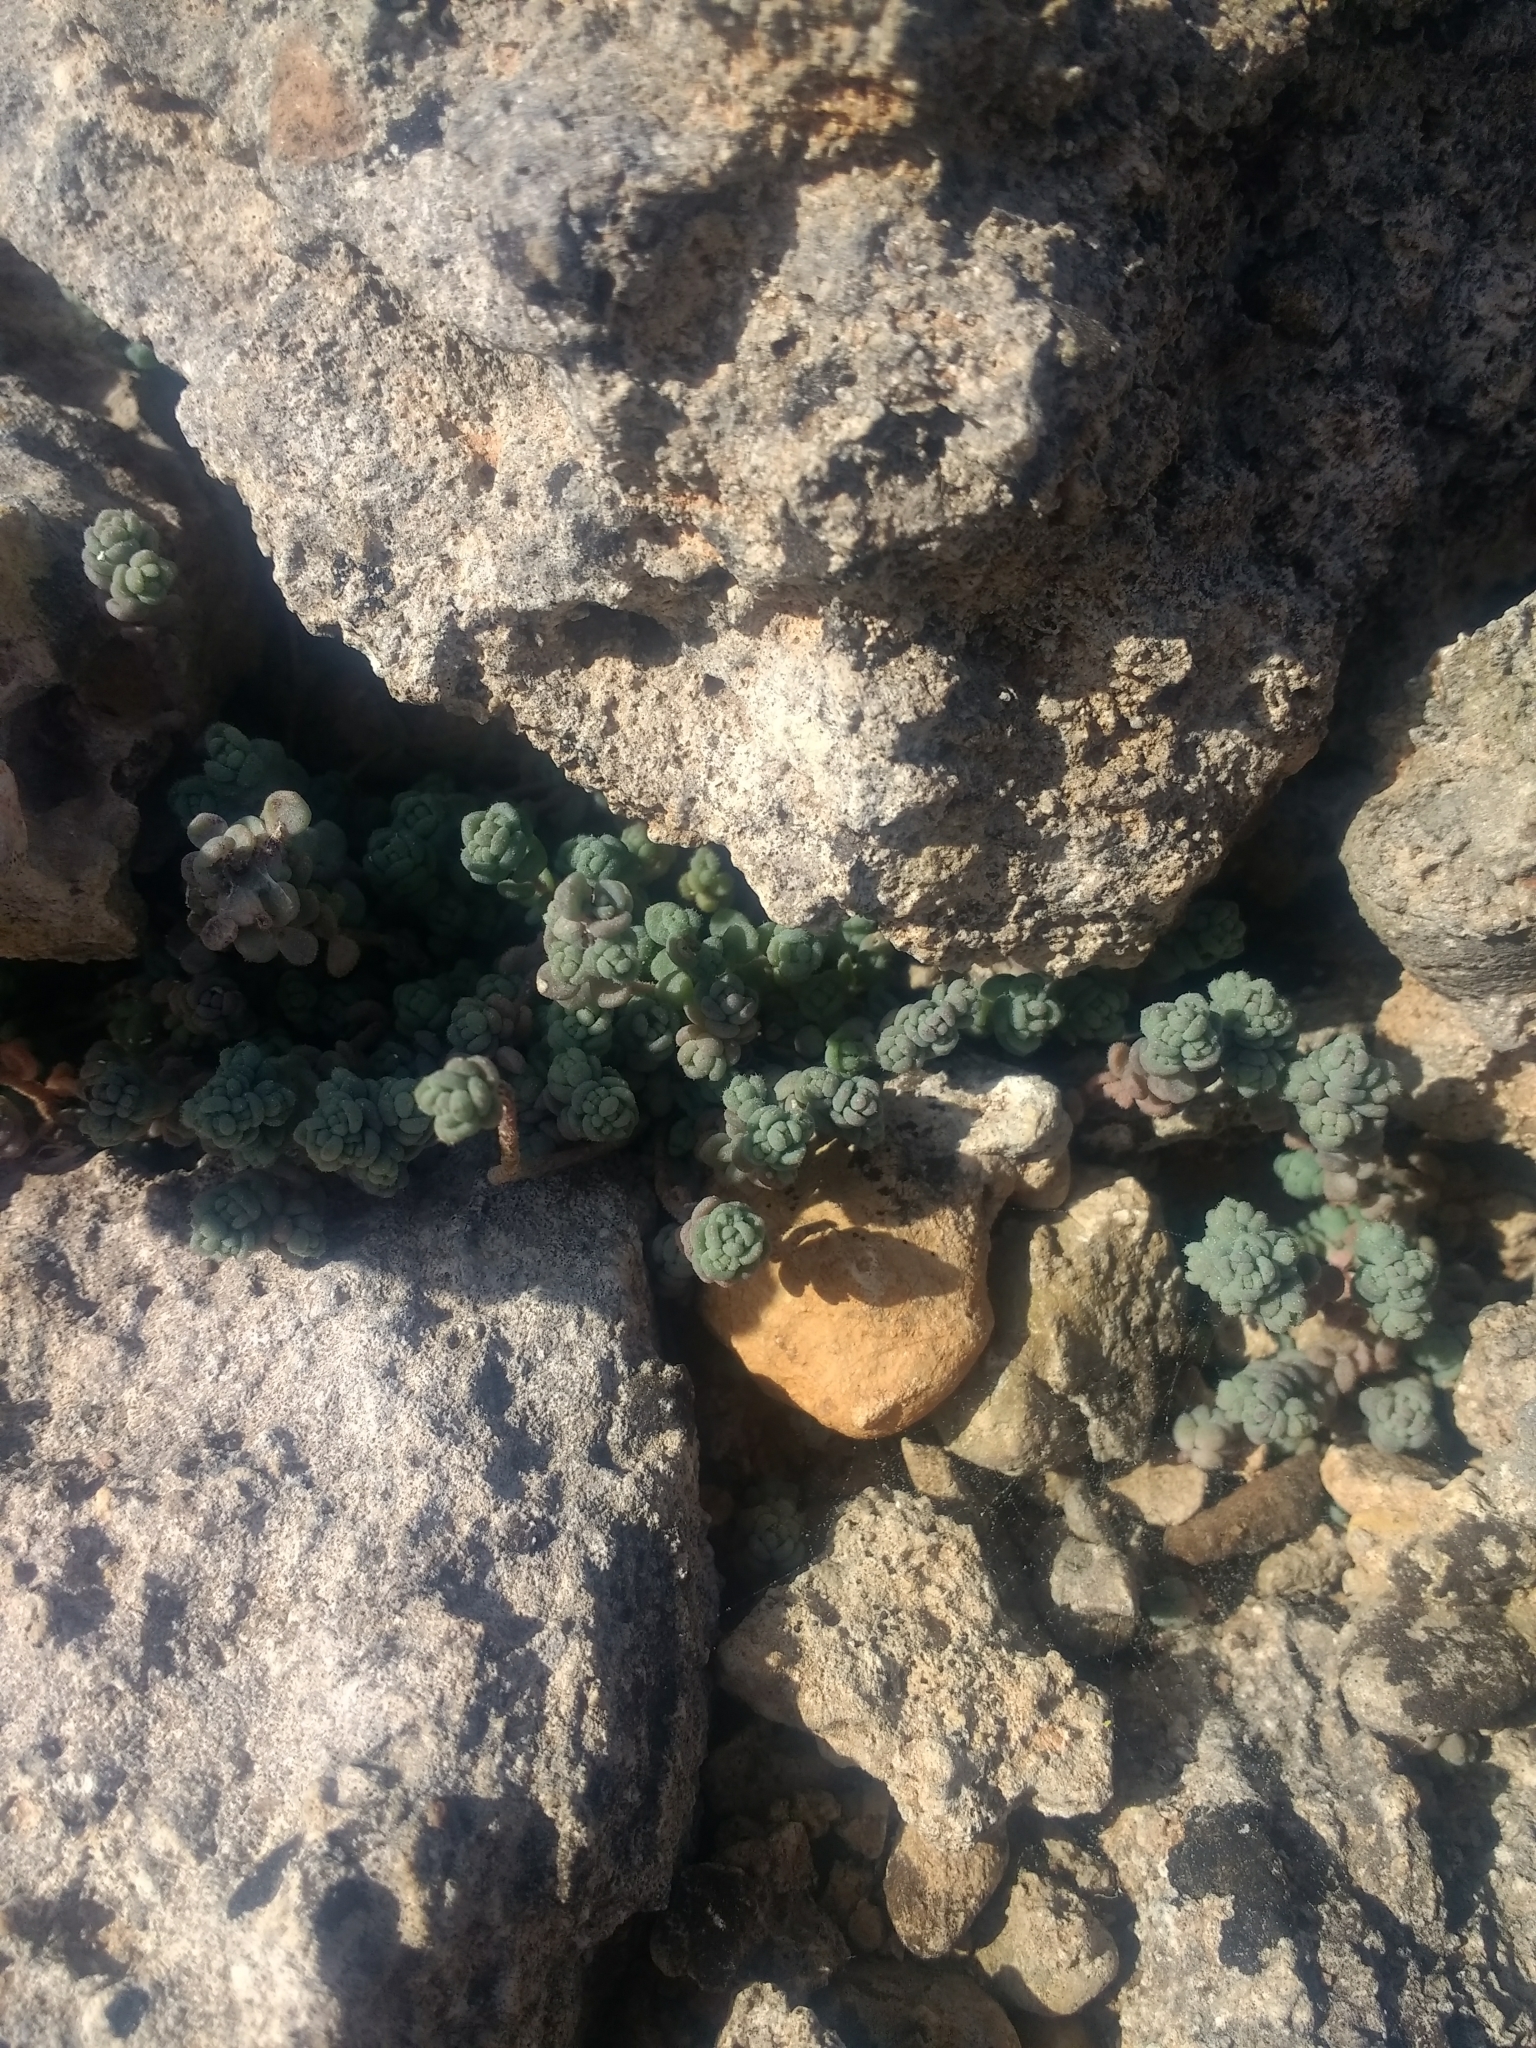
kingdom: Plantae
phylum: Tracheophyta
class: Magnoliopsida
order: Saxifragales
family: Crassulaceae
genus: Sedum
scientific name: Sedum dasyphyllum
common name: Thick-leaf stonecrop
